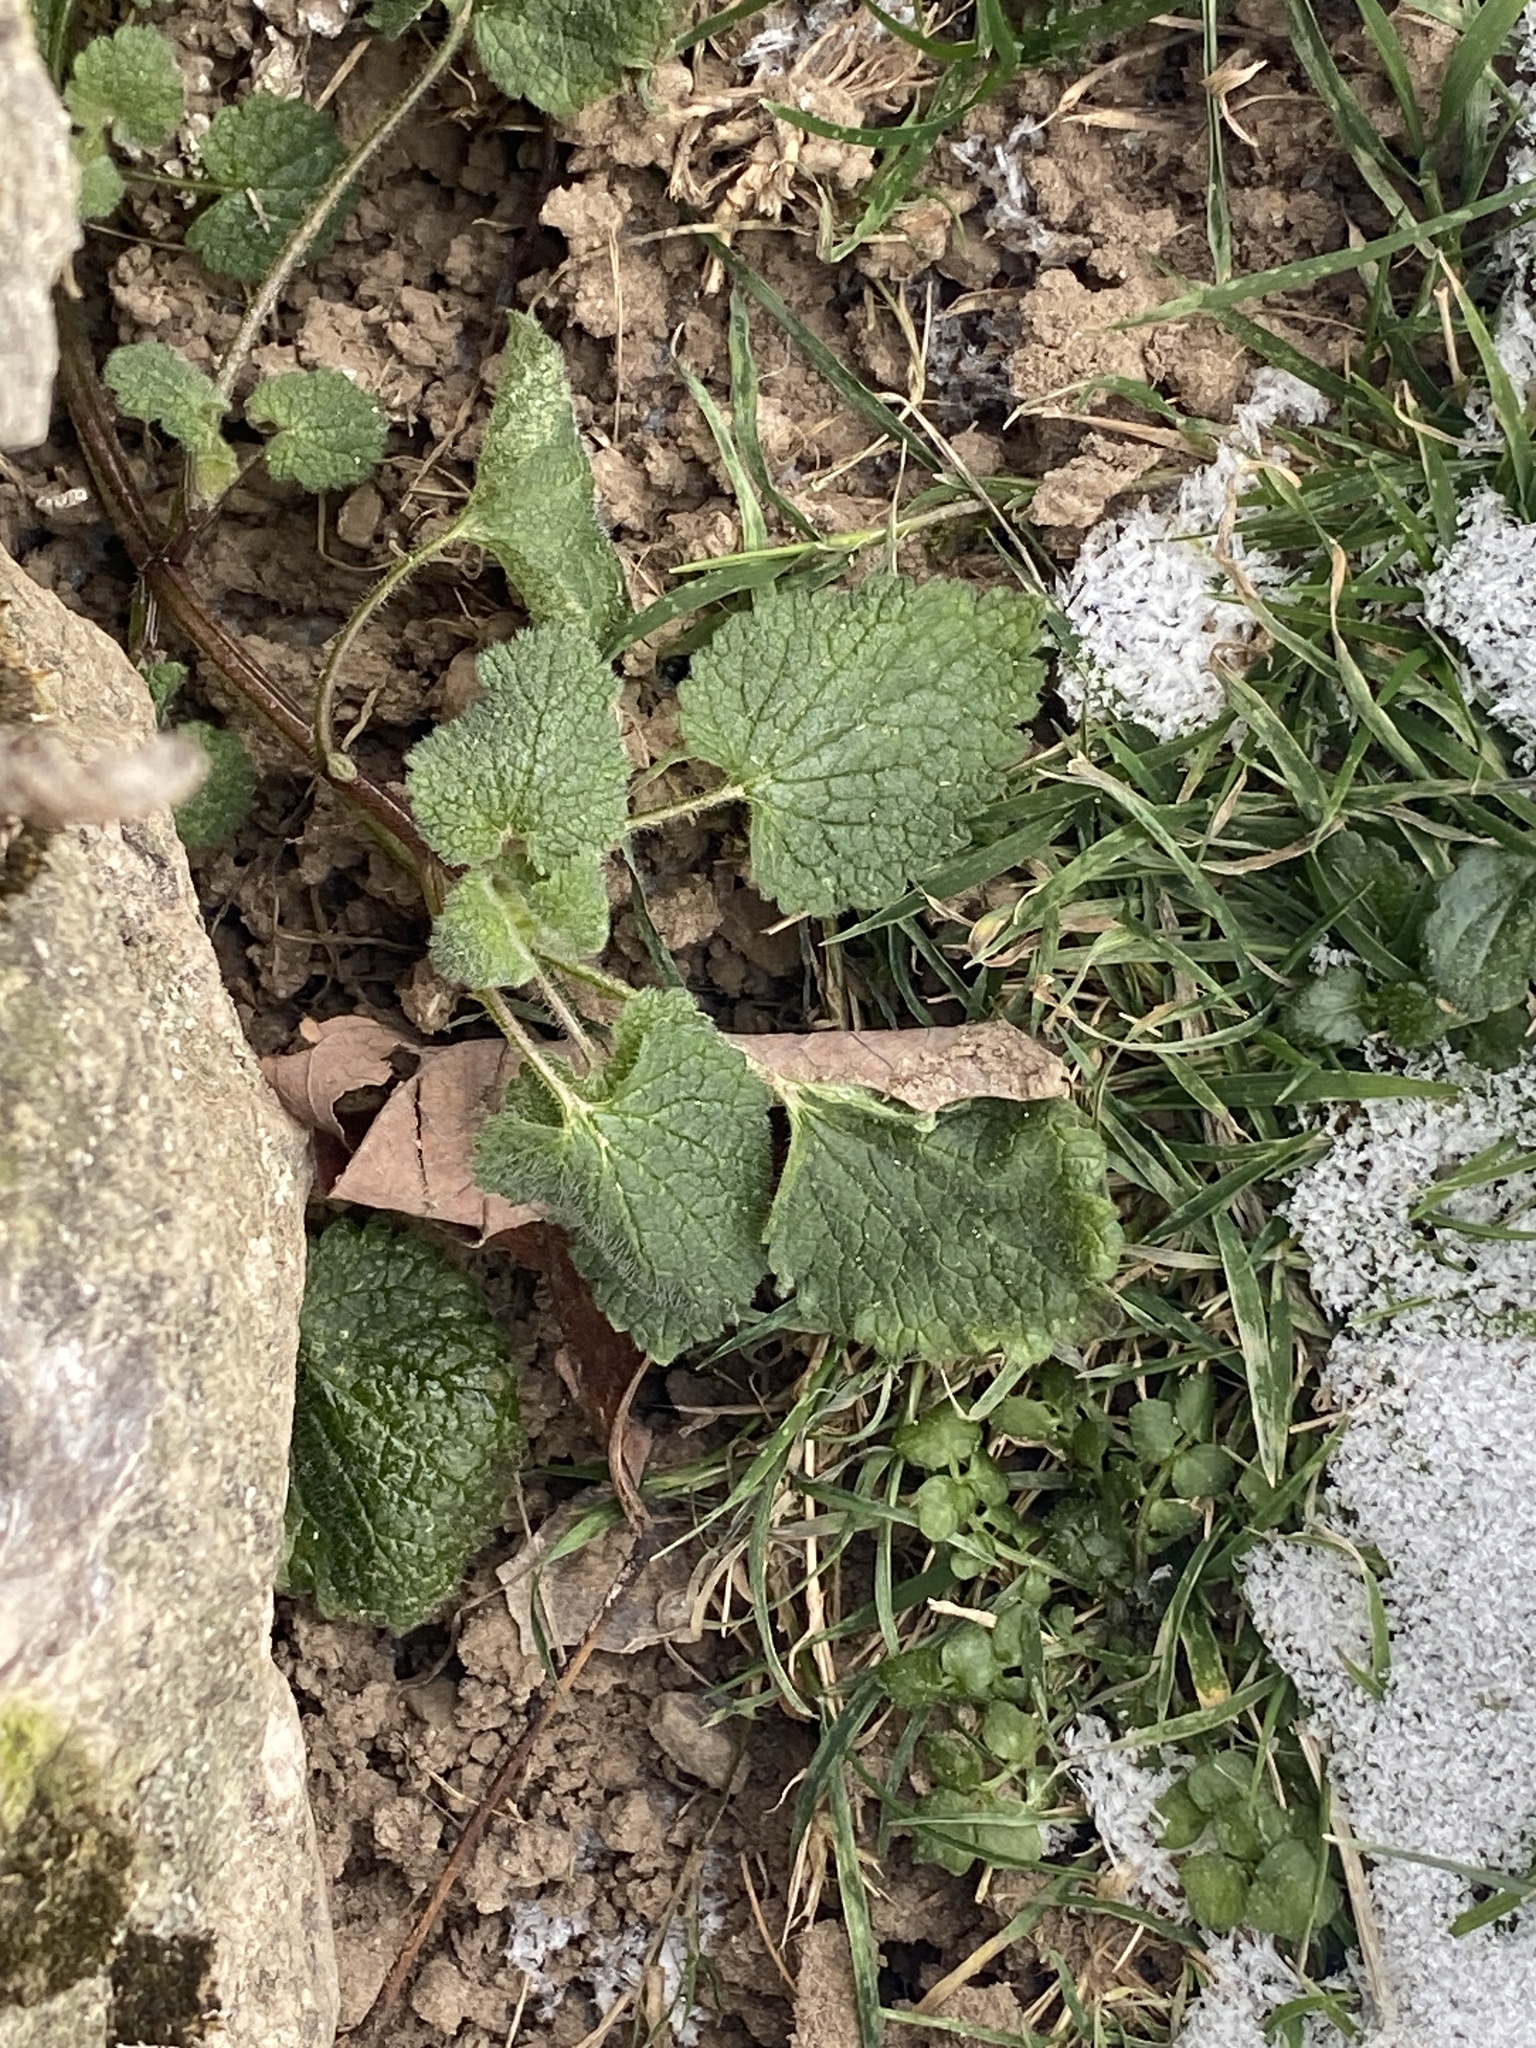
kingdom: Plantae
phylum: Tracheophyta
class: Magnoliopsida
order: Lamiales
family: Lamiaceae
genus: Lamium
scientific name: Lamium purpureum
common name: Red dead-nettle
